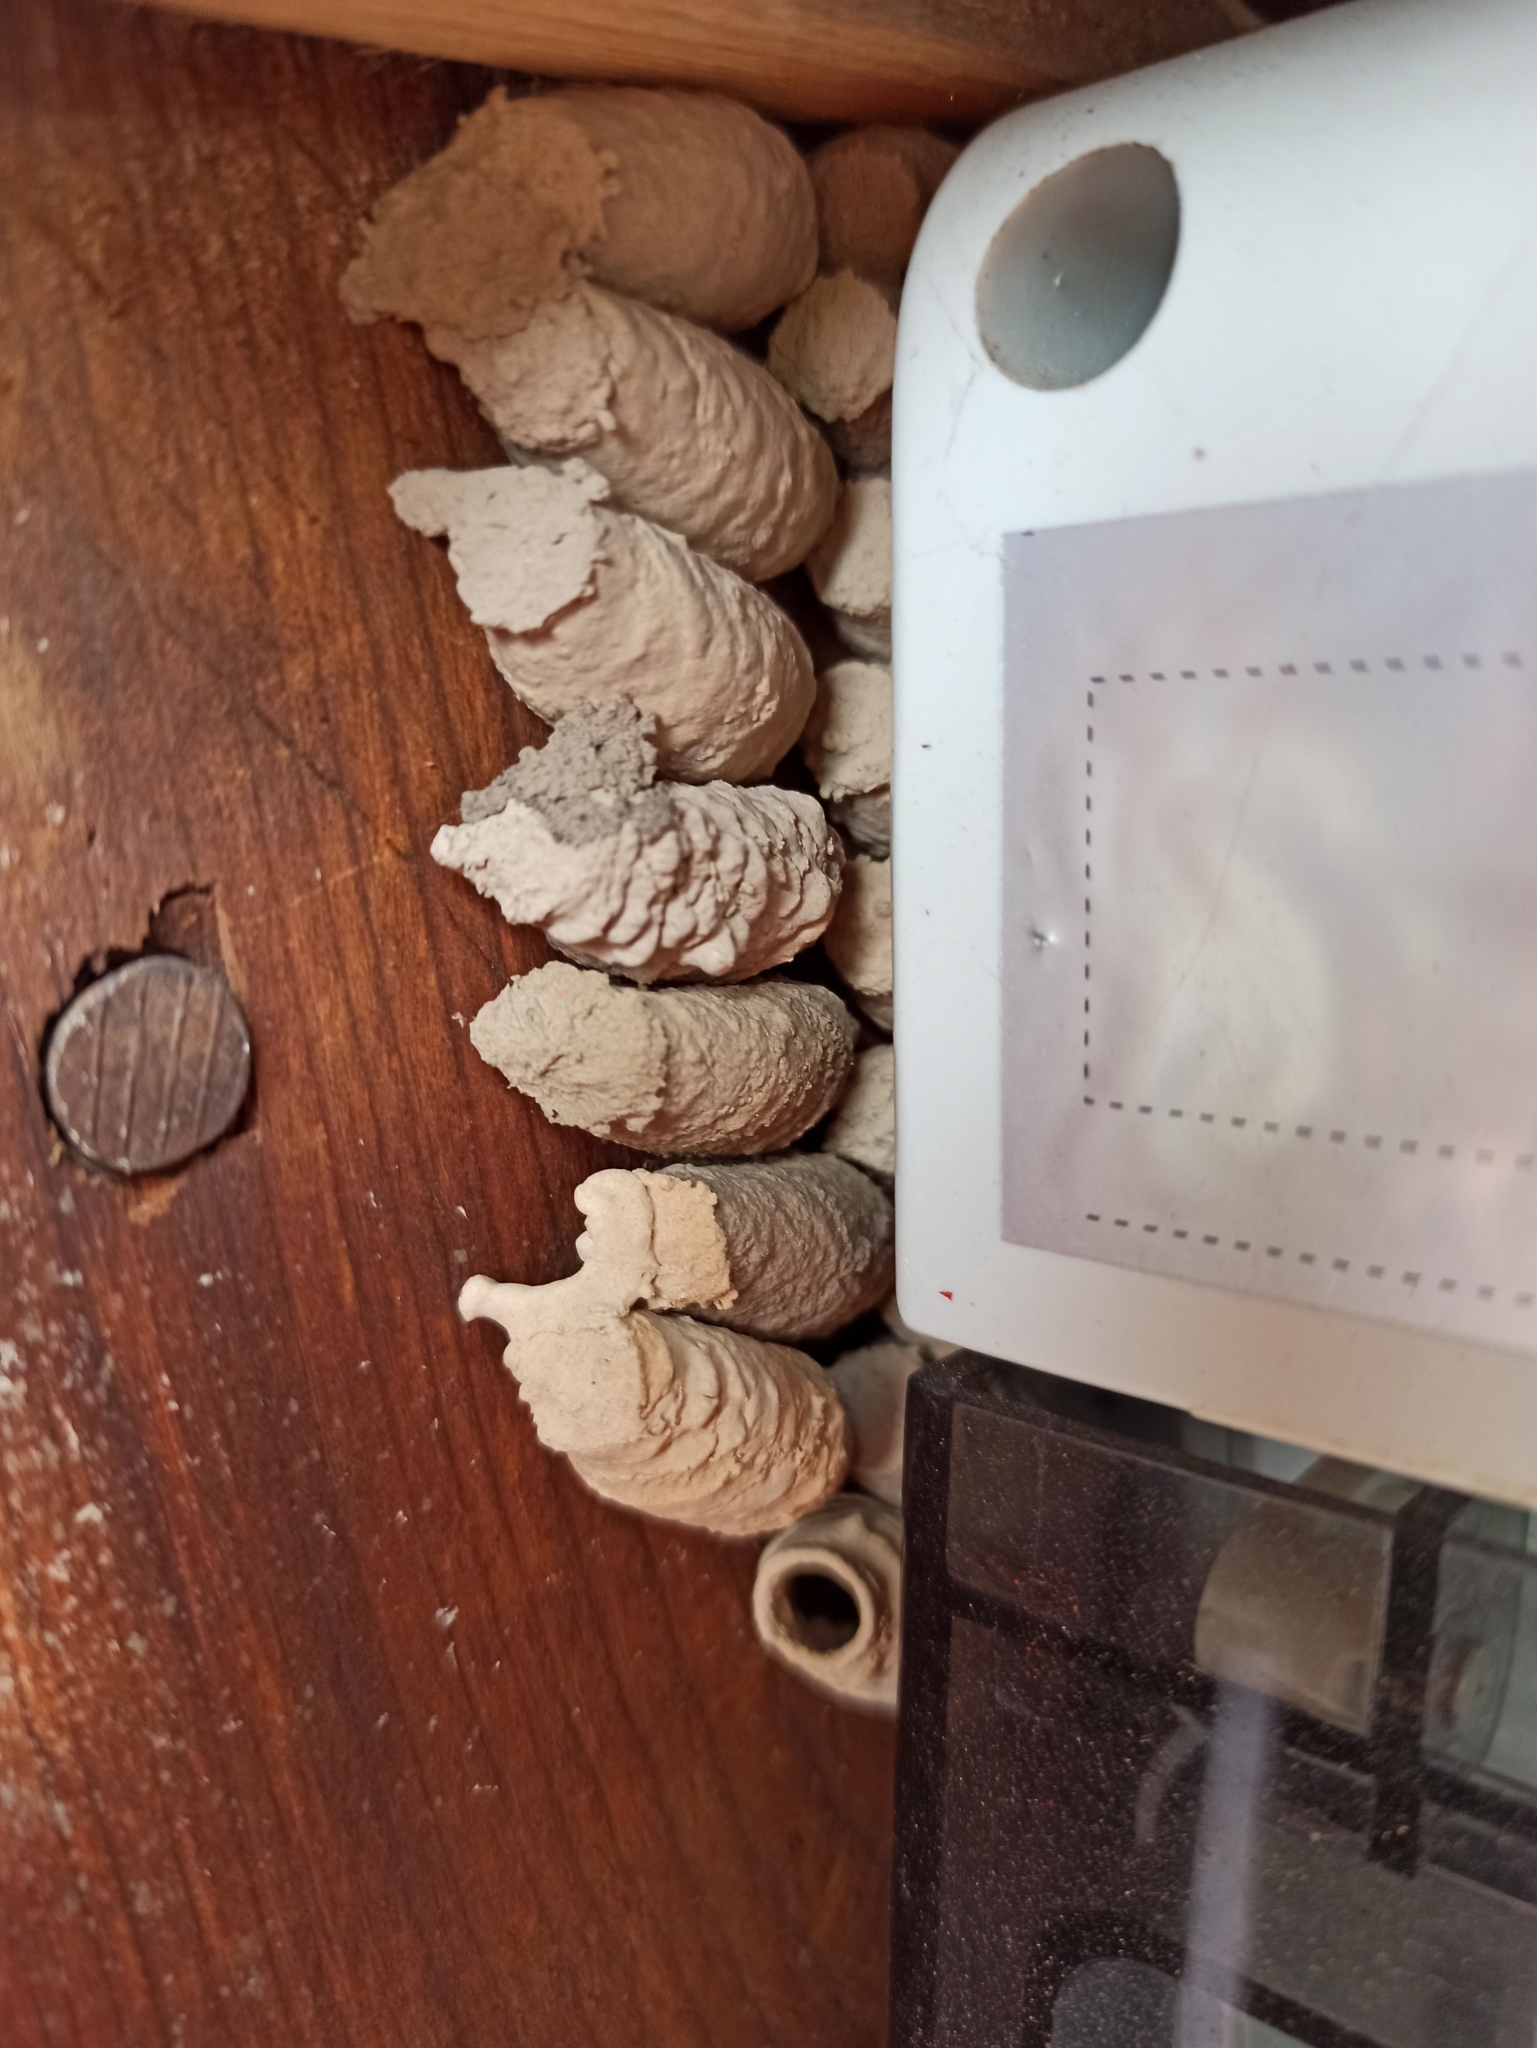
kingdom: Animalia
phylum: Arthropoda
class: Insecta
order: Hymenoptera
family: Sphecidae
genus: Sceliphron
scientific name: Sceliphron curvatum
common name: Pèlopèe
